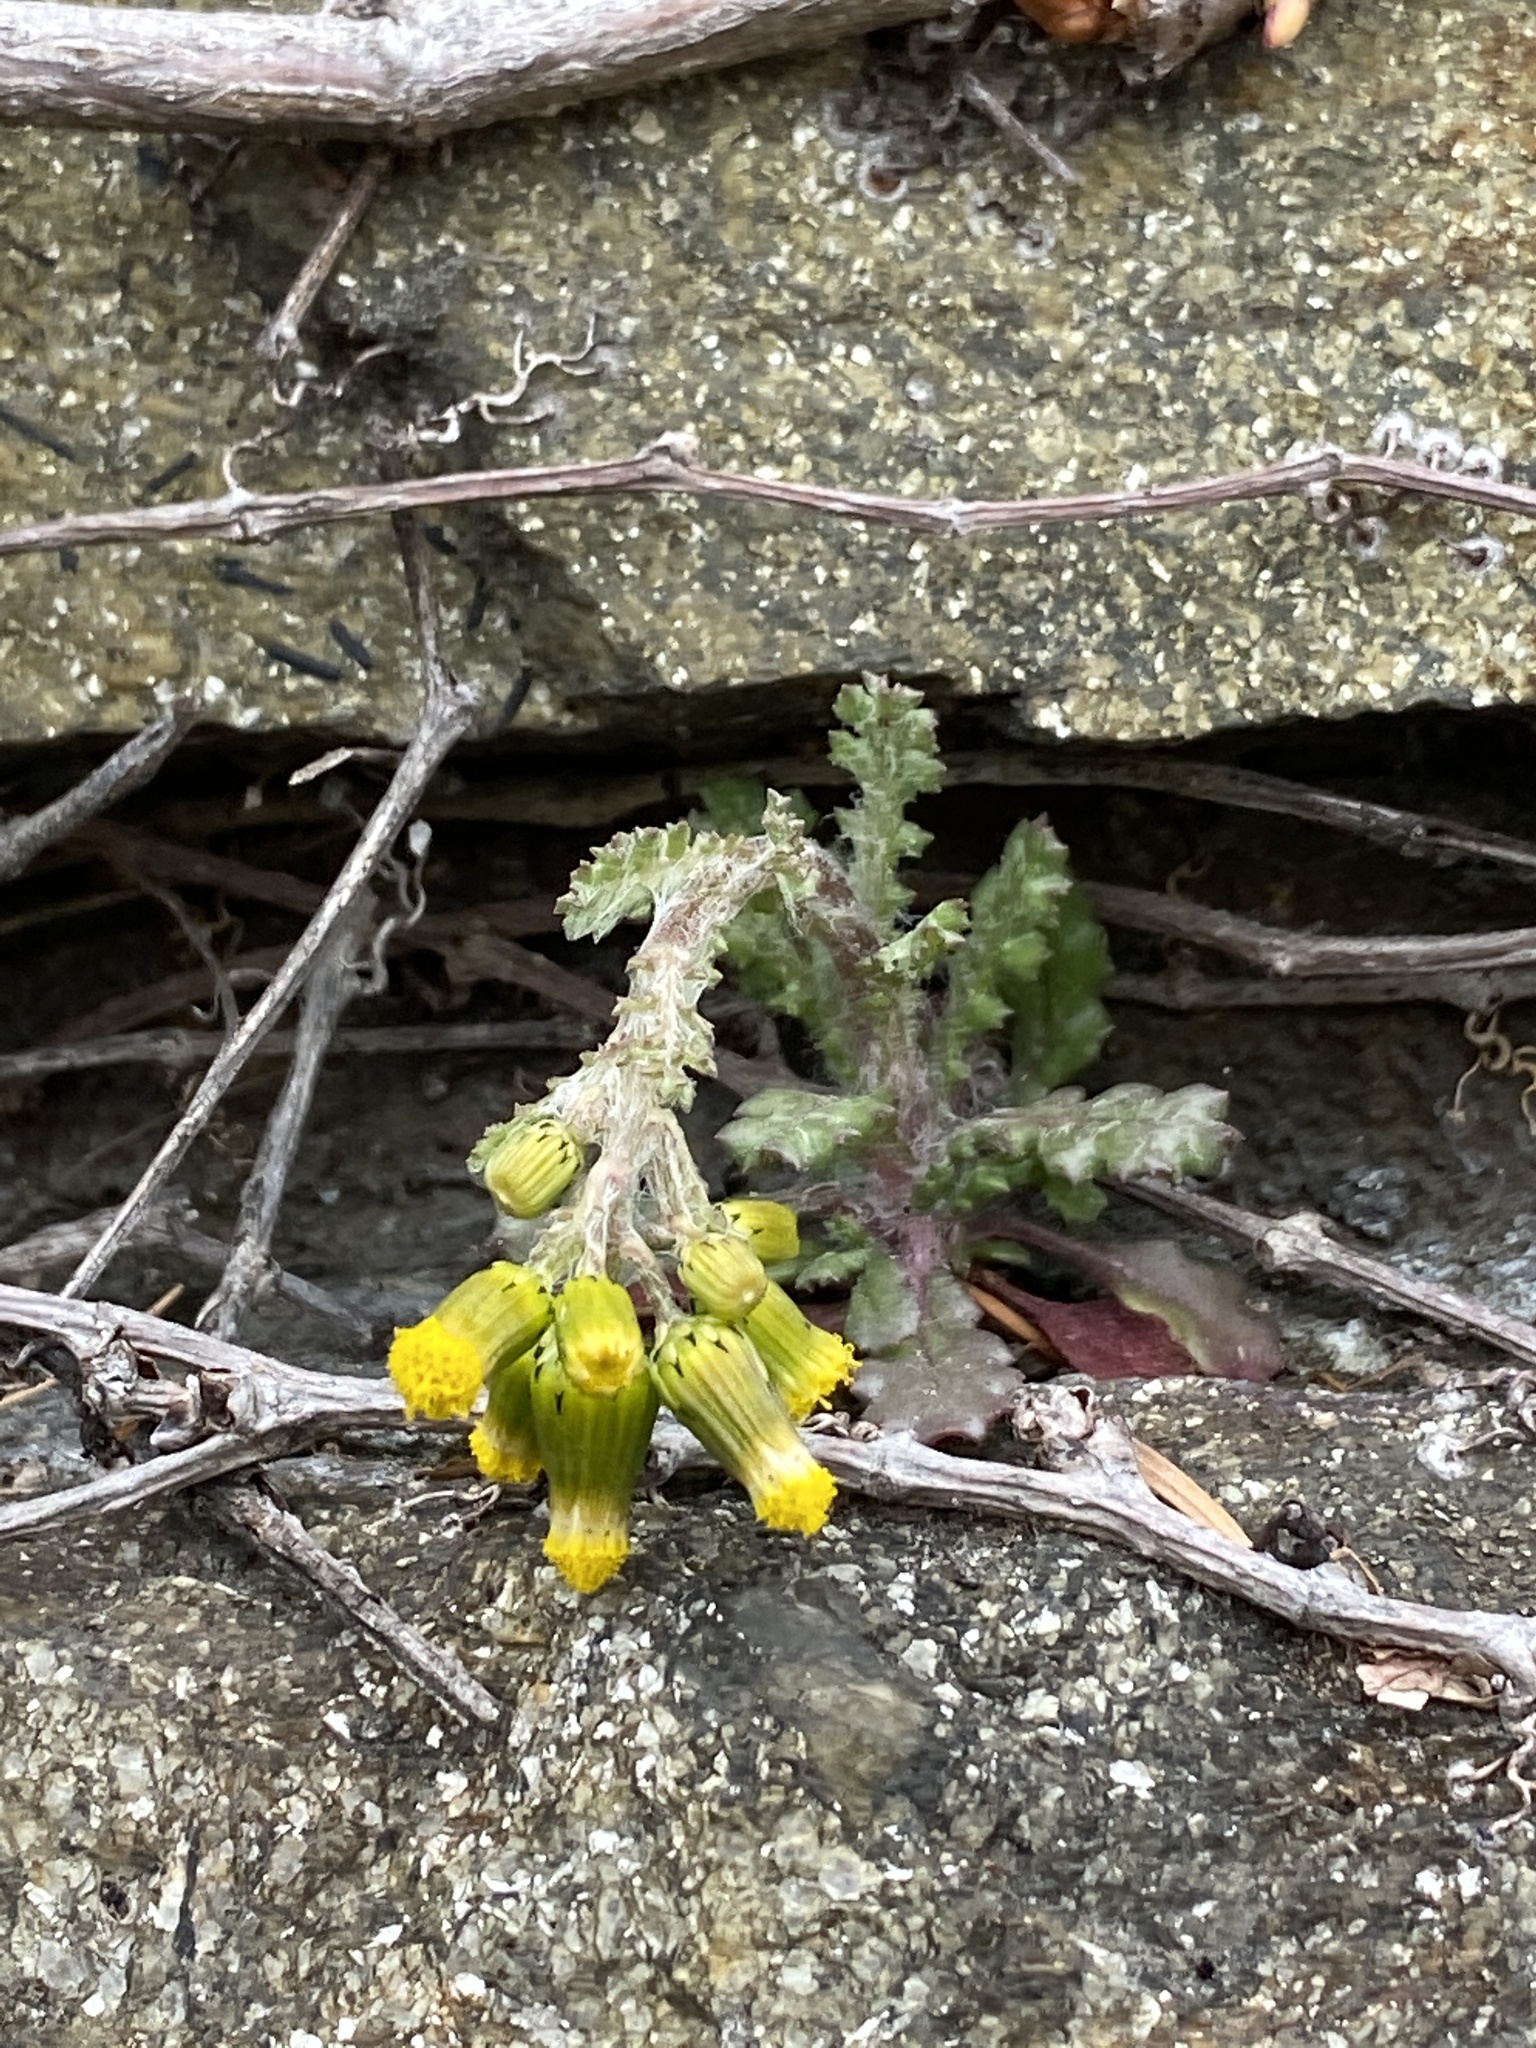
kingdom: Plantae
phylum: Tracheophyta
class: Magnoliopsida
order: Asterales
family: Asteraceae
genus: Senecio
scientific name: Senecio vulgaris
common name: Old-man-in-the-spring
